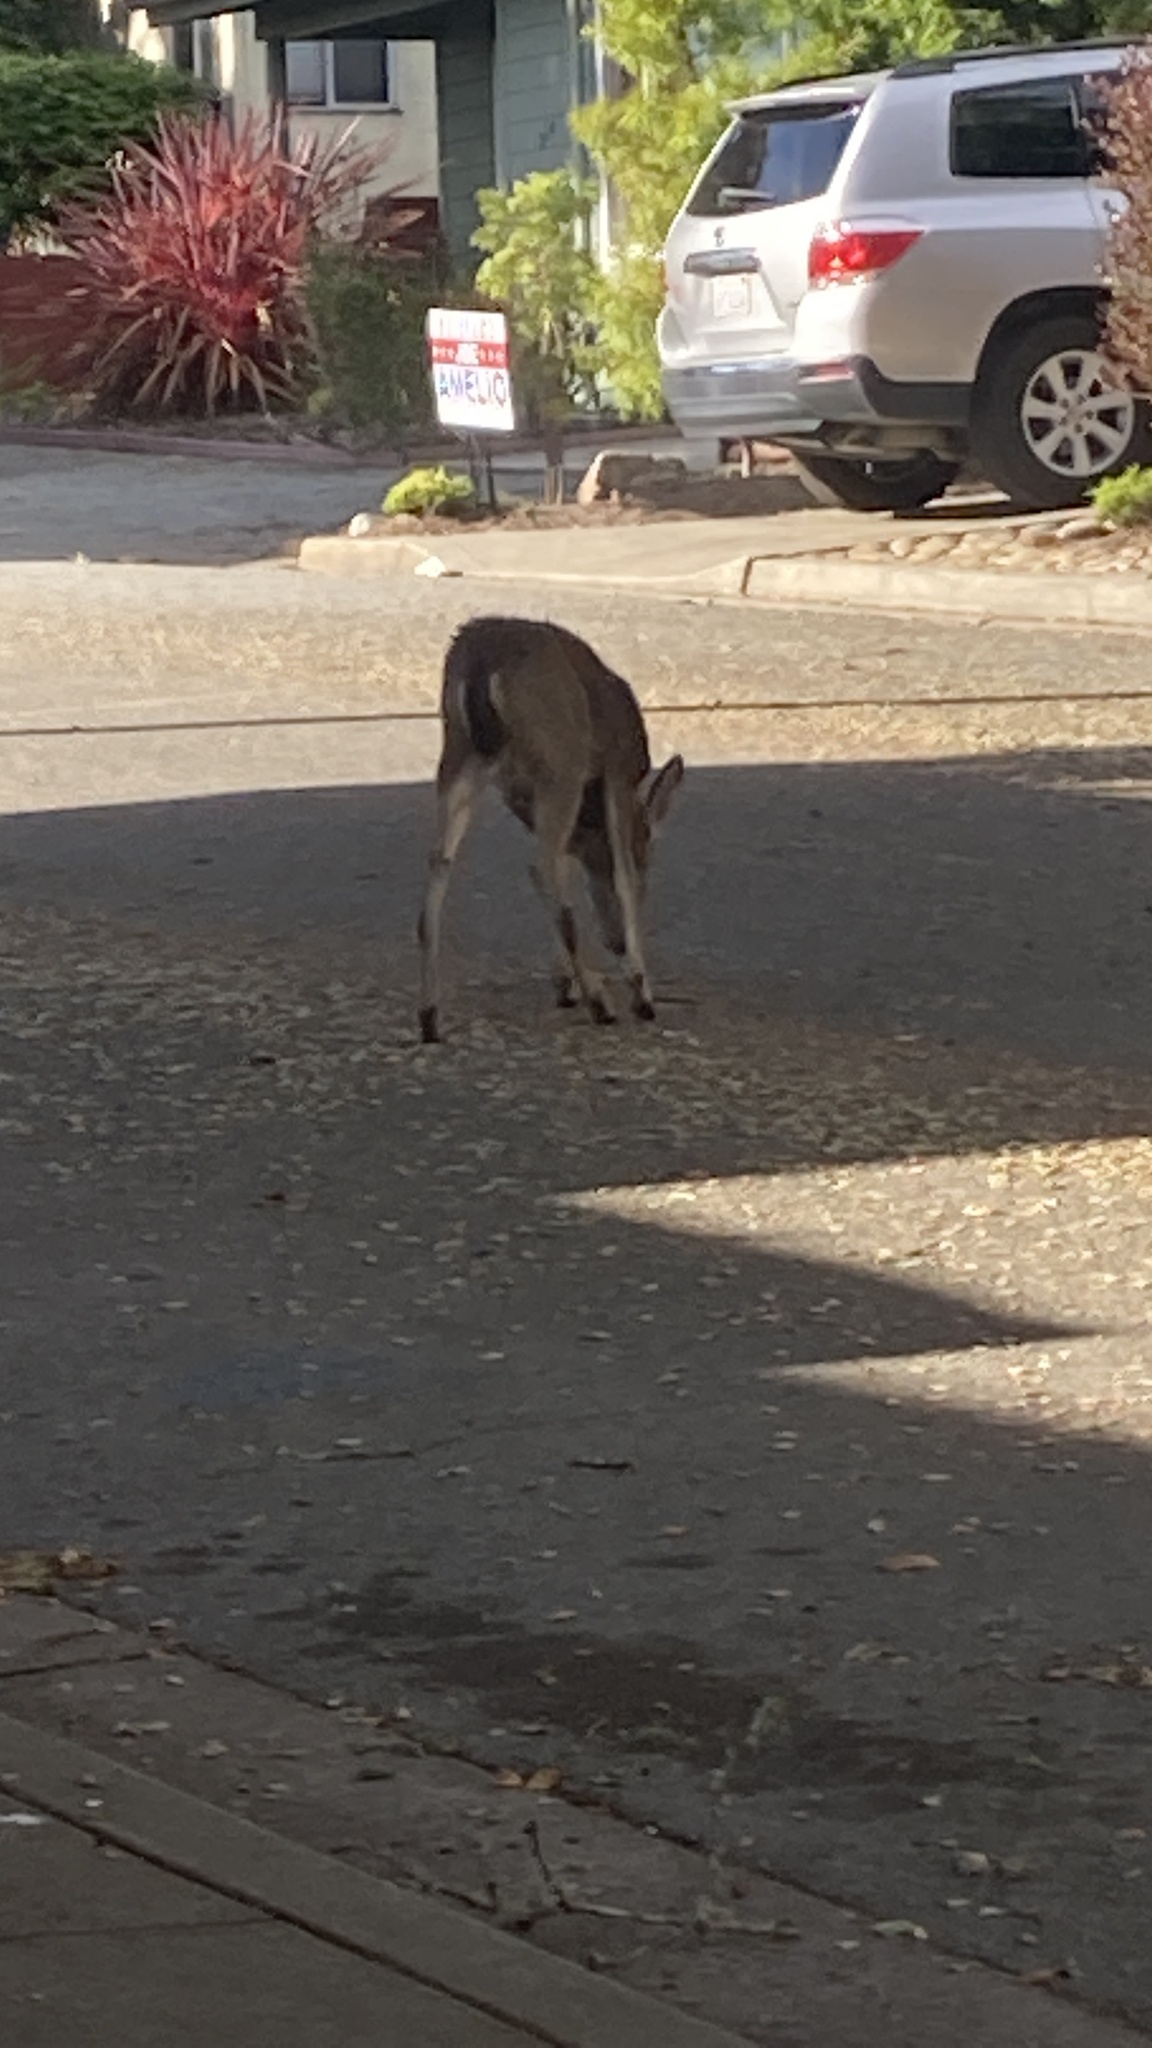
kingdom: Animalia
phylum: Chordata
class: Mammalia
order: Artiodactyla
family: Cervidae
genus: Odocoileus
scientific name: Odocoileus hemionus
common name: Mule deer
